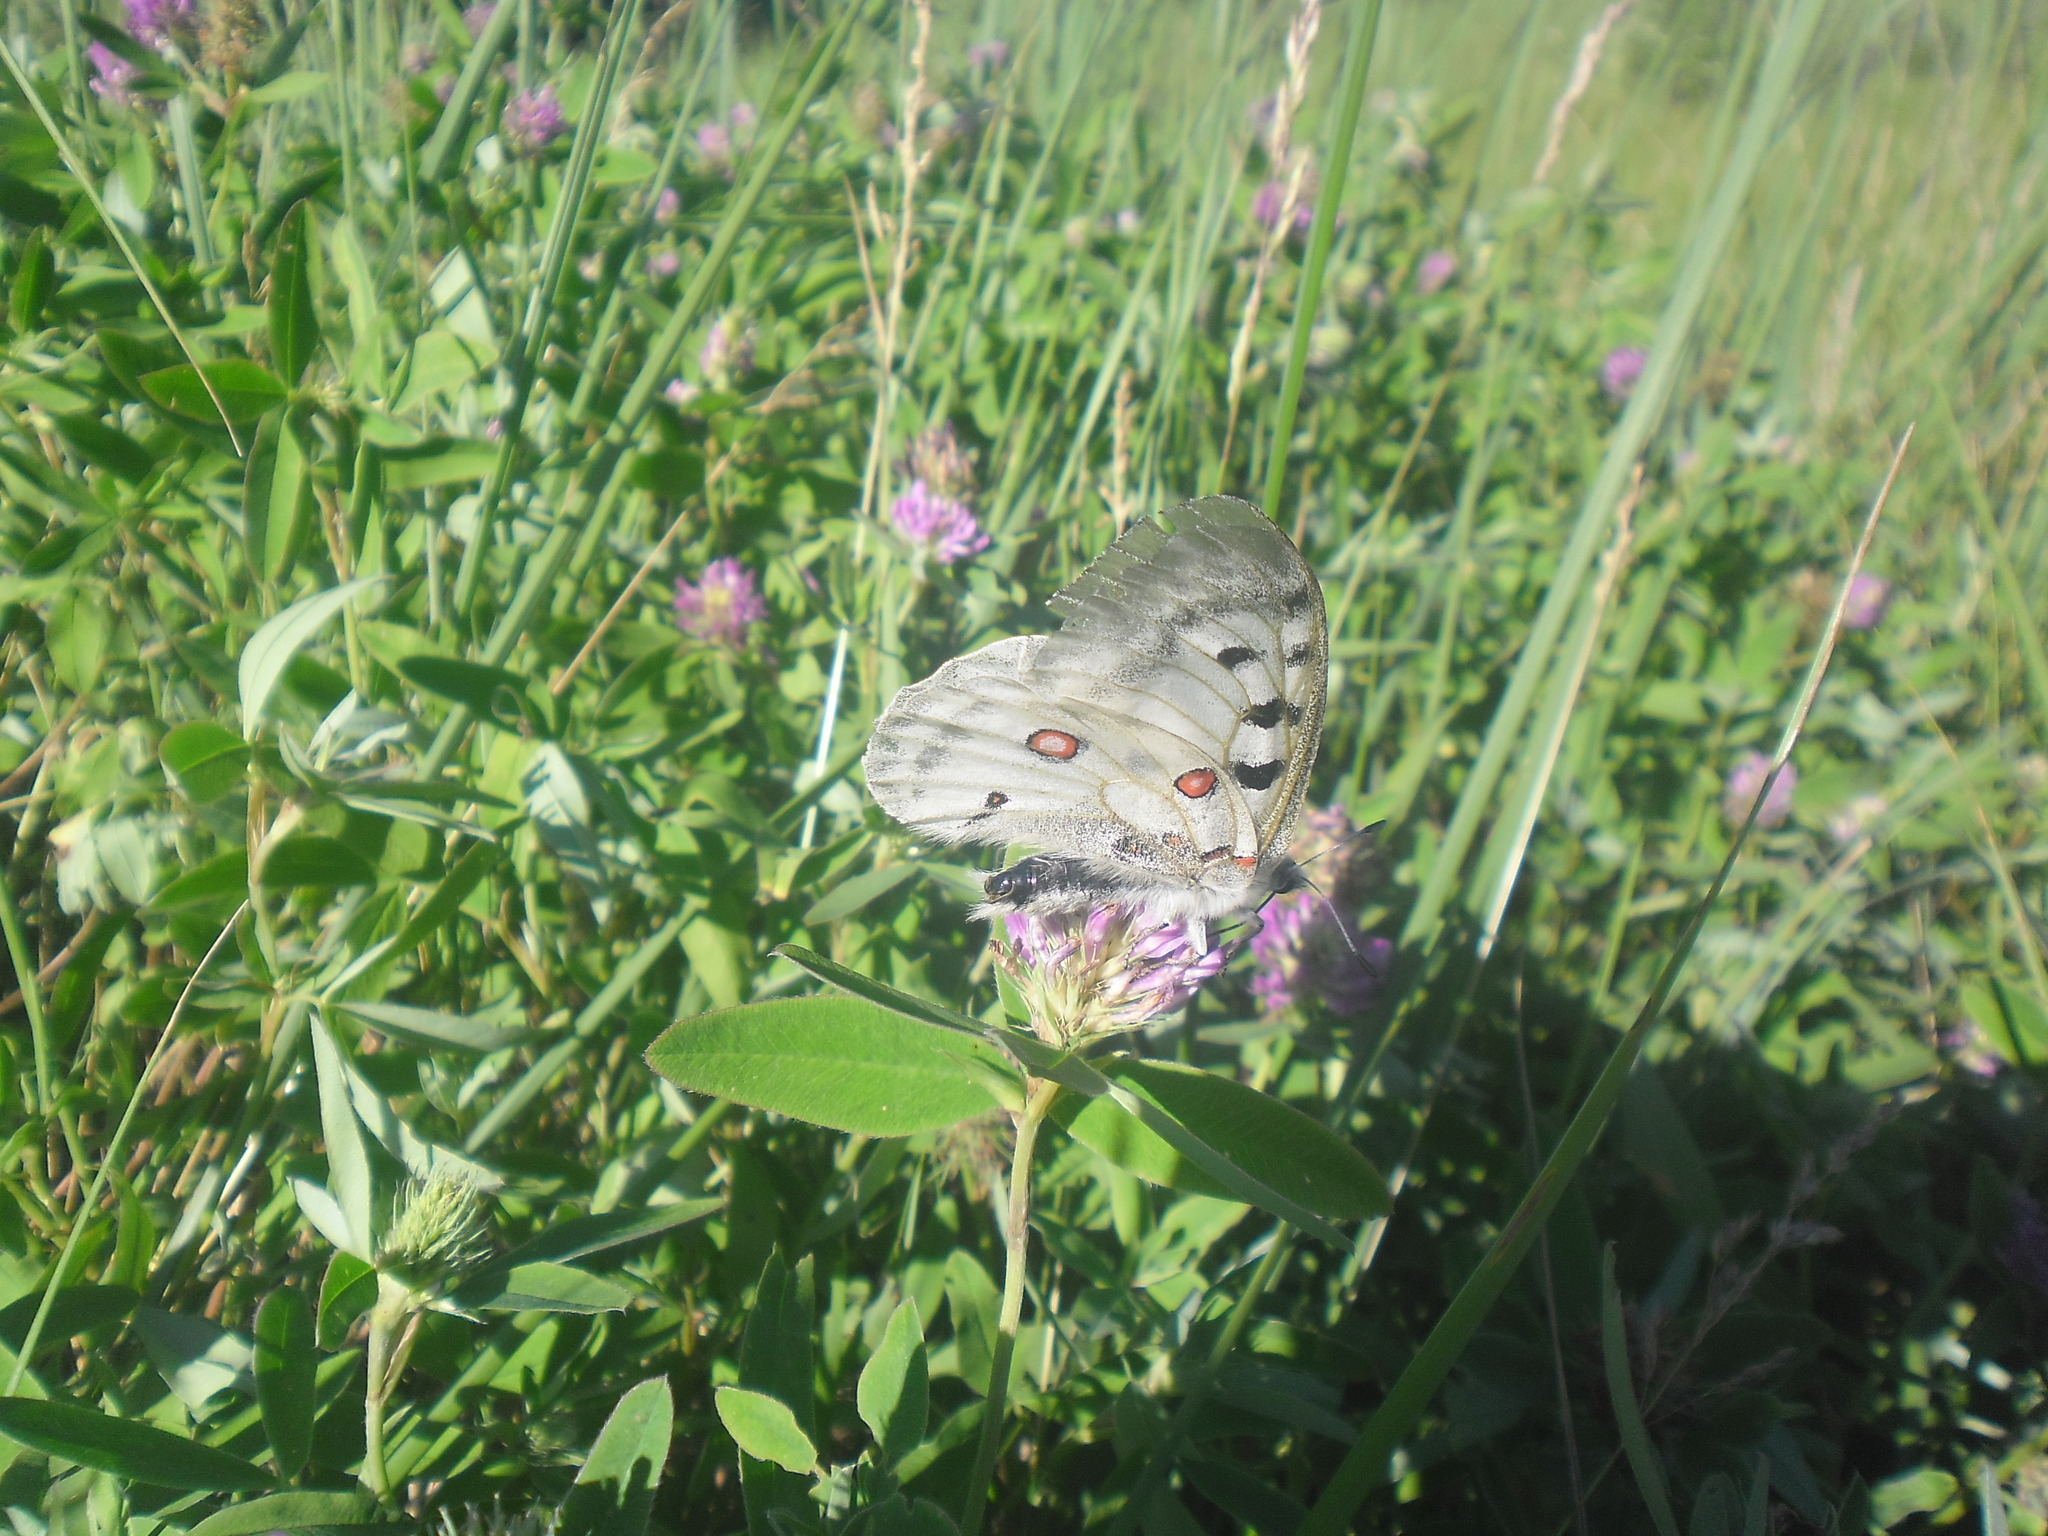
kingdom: Animalia
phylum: Arthropoda
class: Insecta
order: Lepidoptera
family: Papilionidae
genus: Parnassius
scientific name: Parnassius apollo
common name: Apollo
